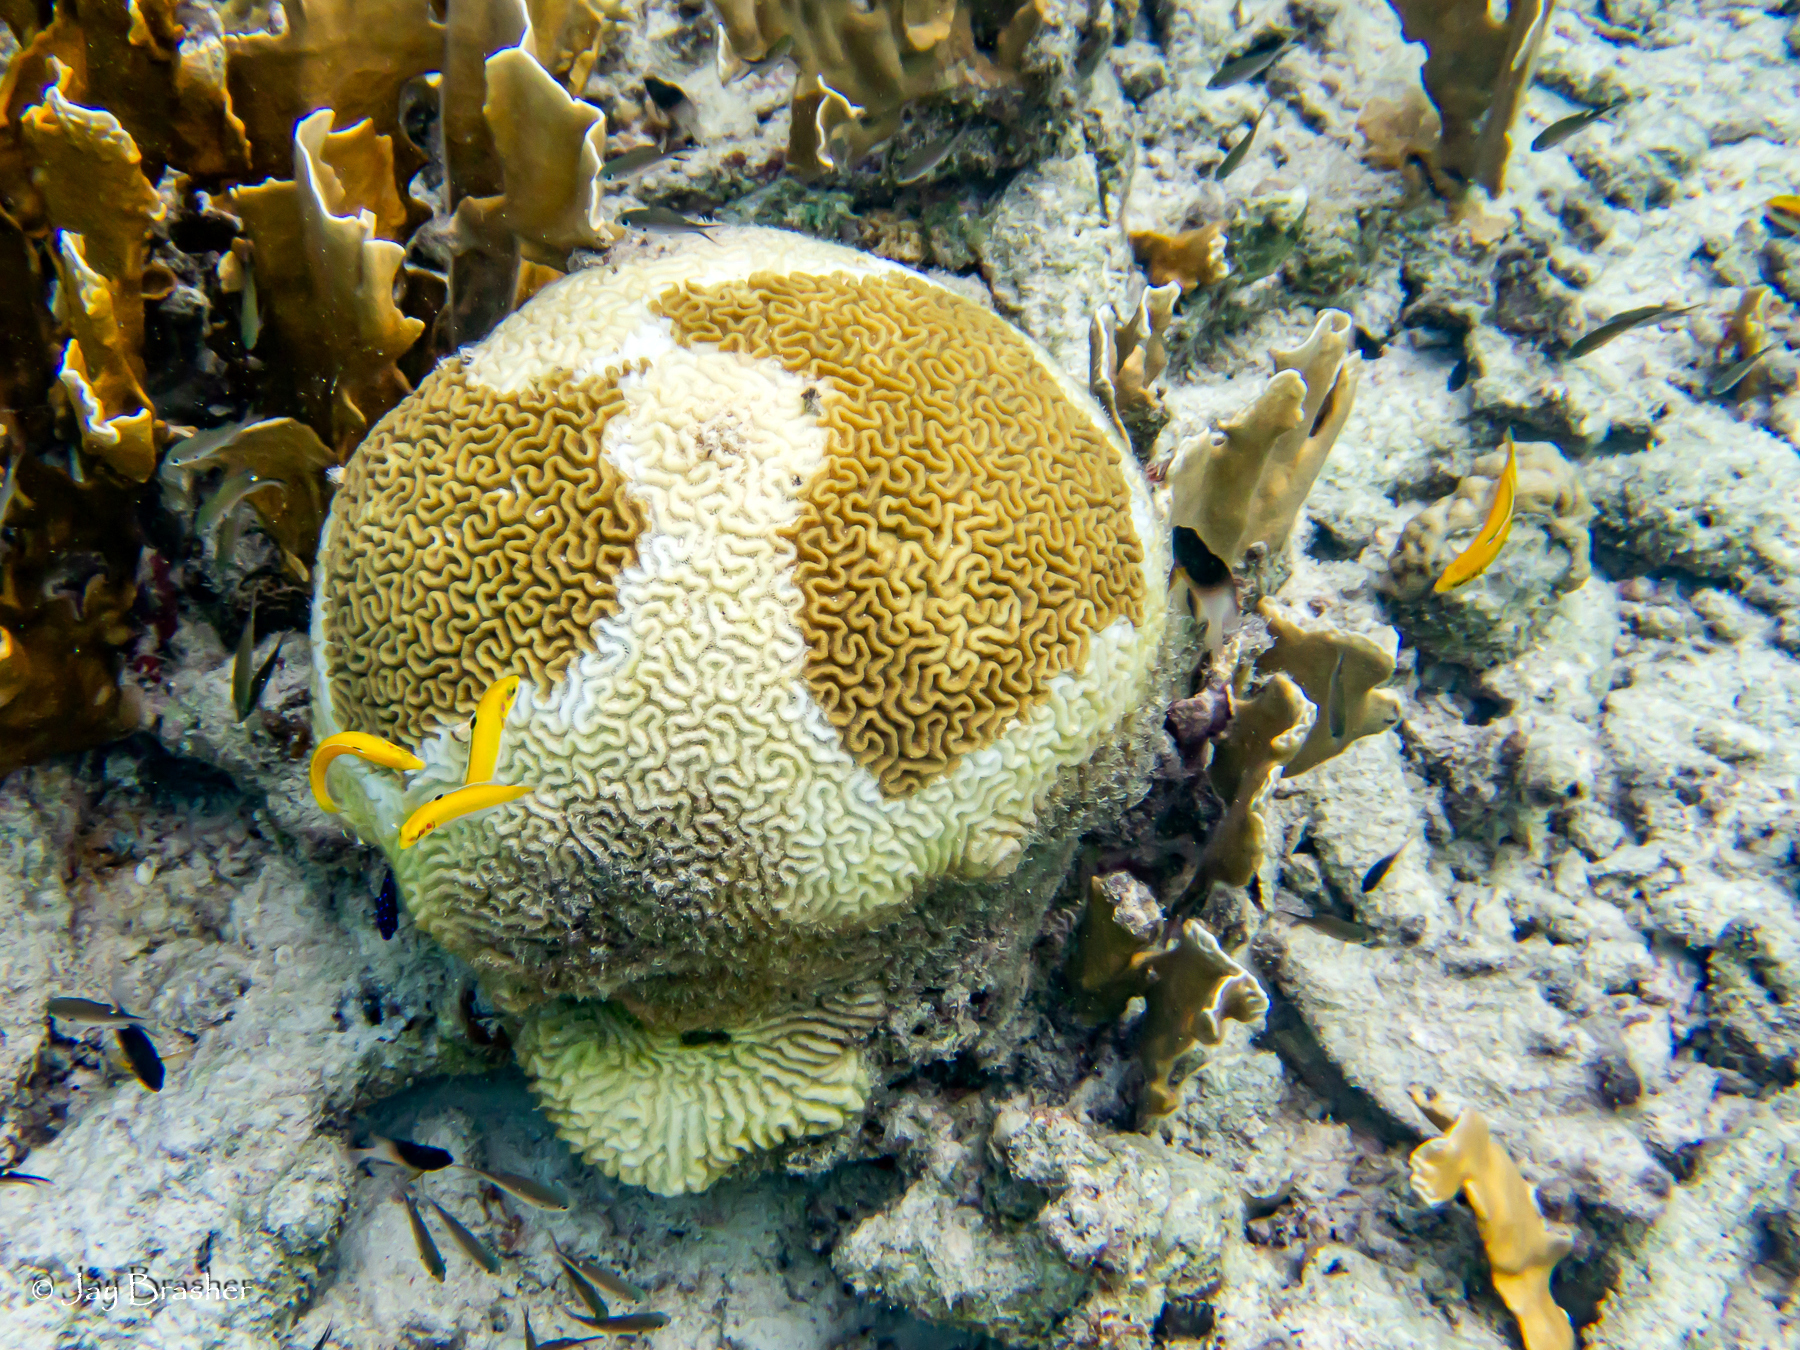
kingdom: Animalia
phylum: Cnidaria
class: Hydrozoa
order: Anthoathecata
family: Milleporidae
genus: Millepora
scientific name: Millepora complanata
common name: Bladed fire coral
